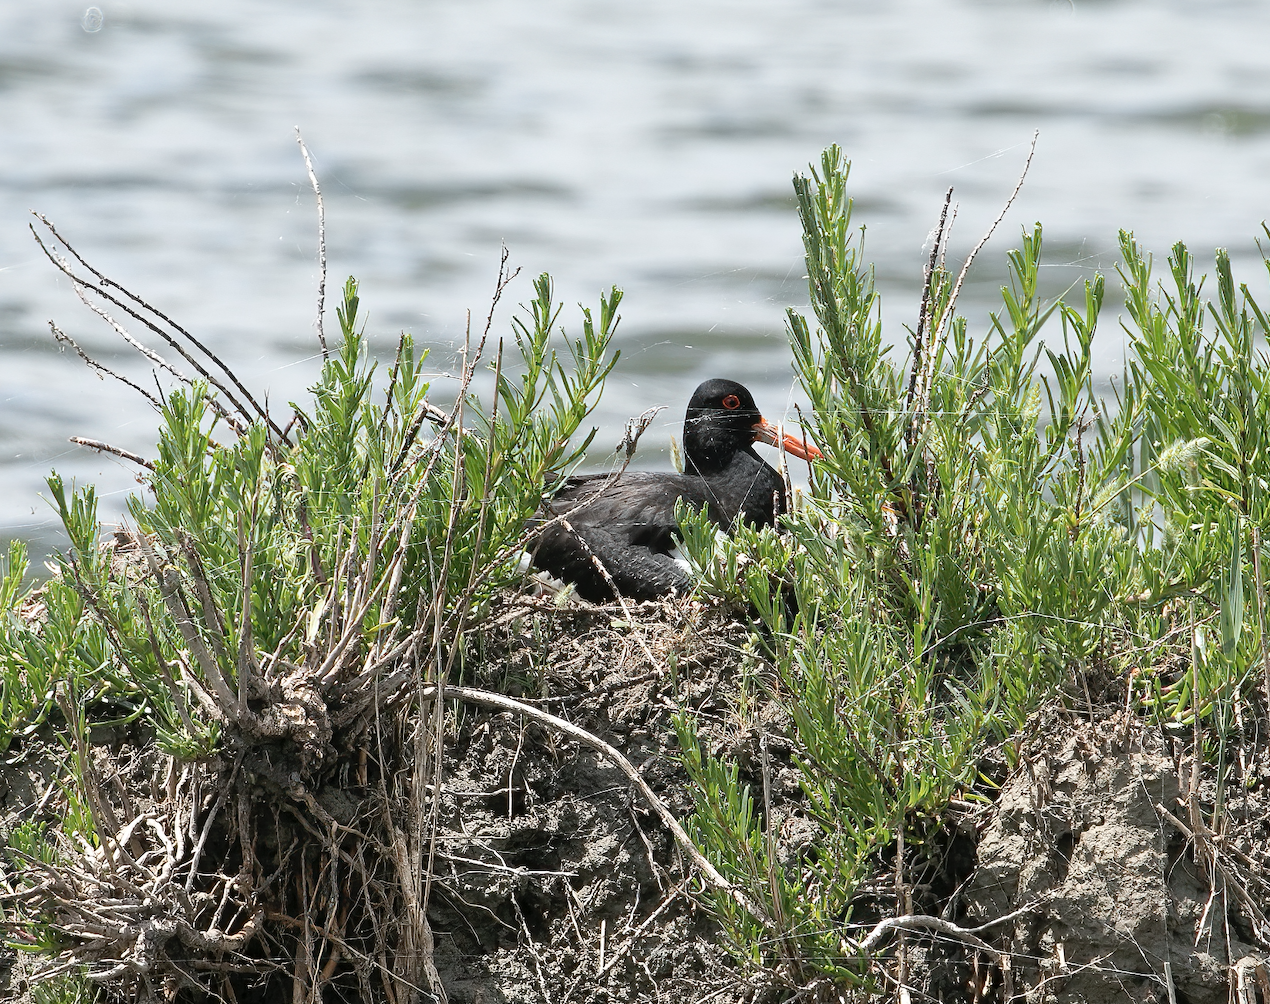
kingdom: Animalia
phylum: Chordata
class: Aves
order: Charadriiformes
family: Haematopodidae
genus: Haematopus
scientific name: Haematopus ostralegus
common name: Eurasian oystercatcher
